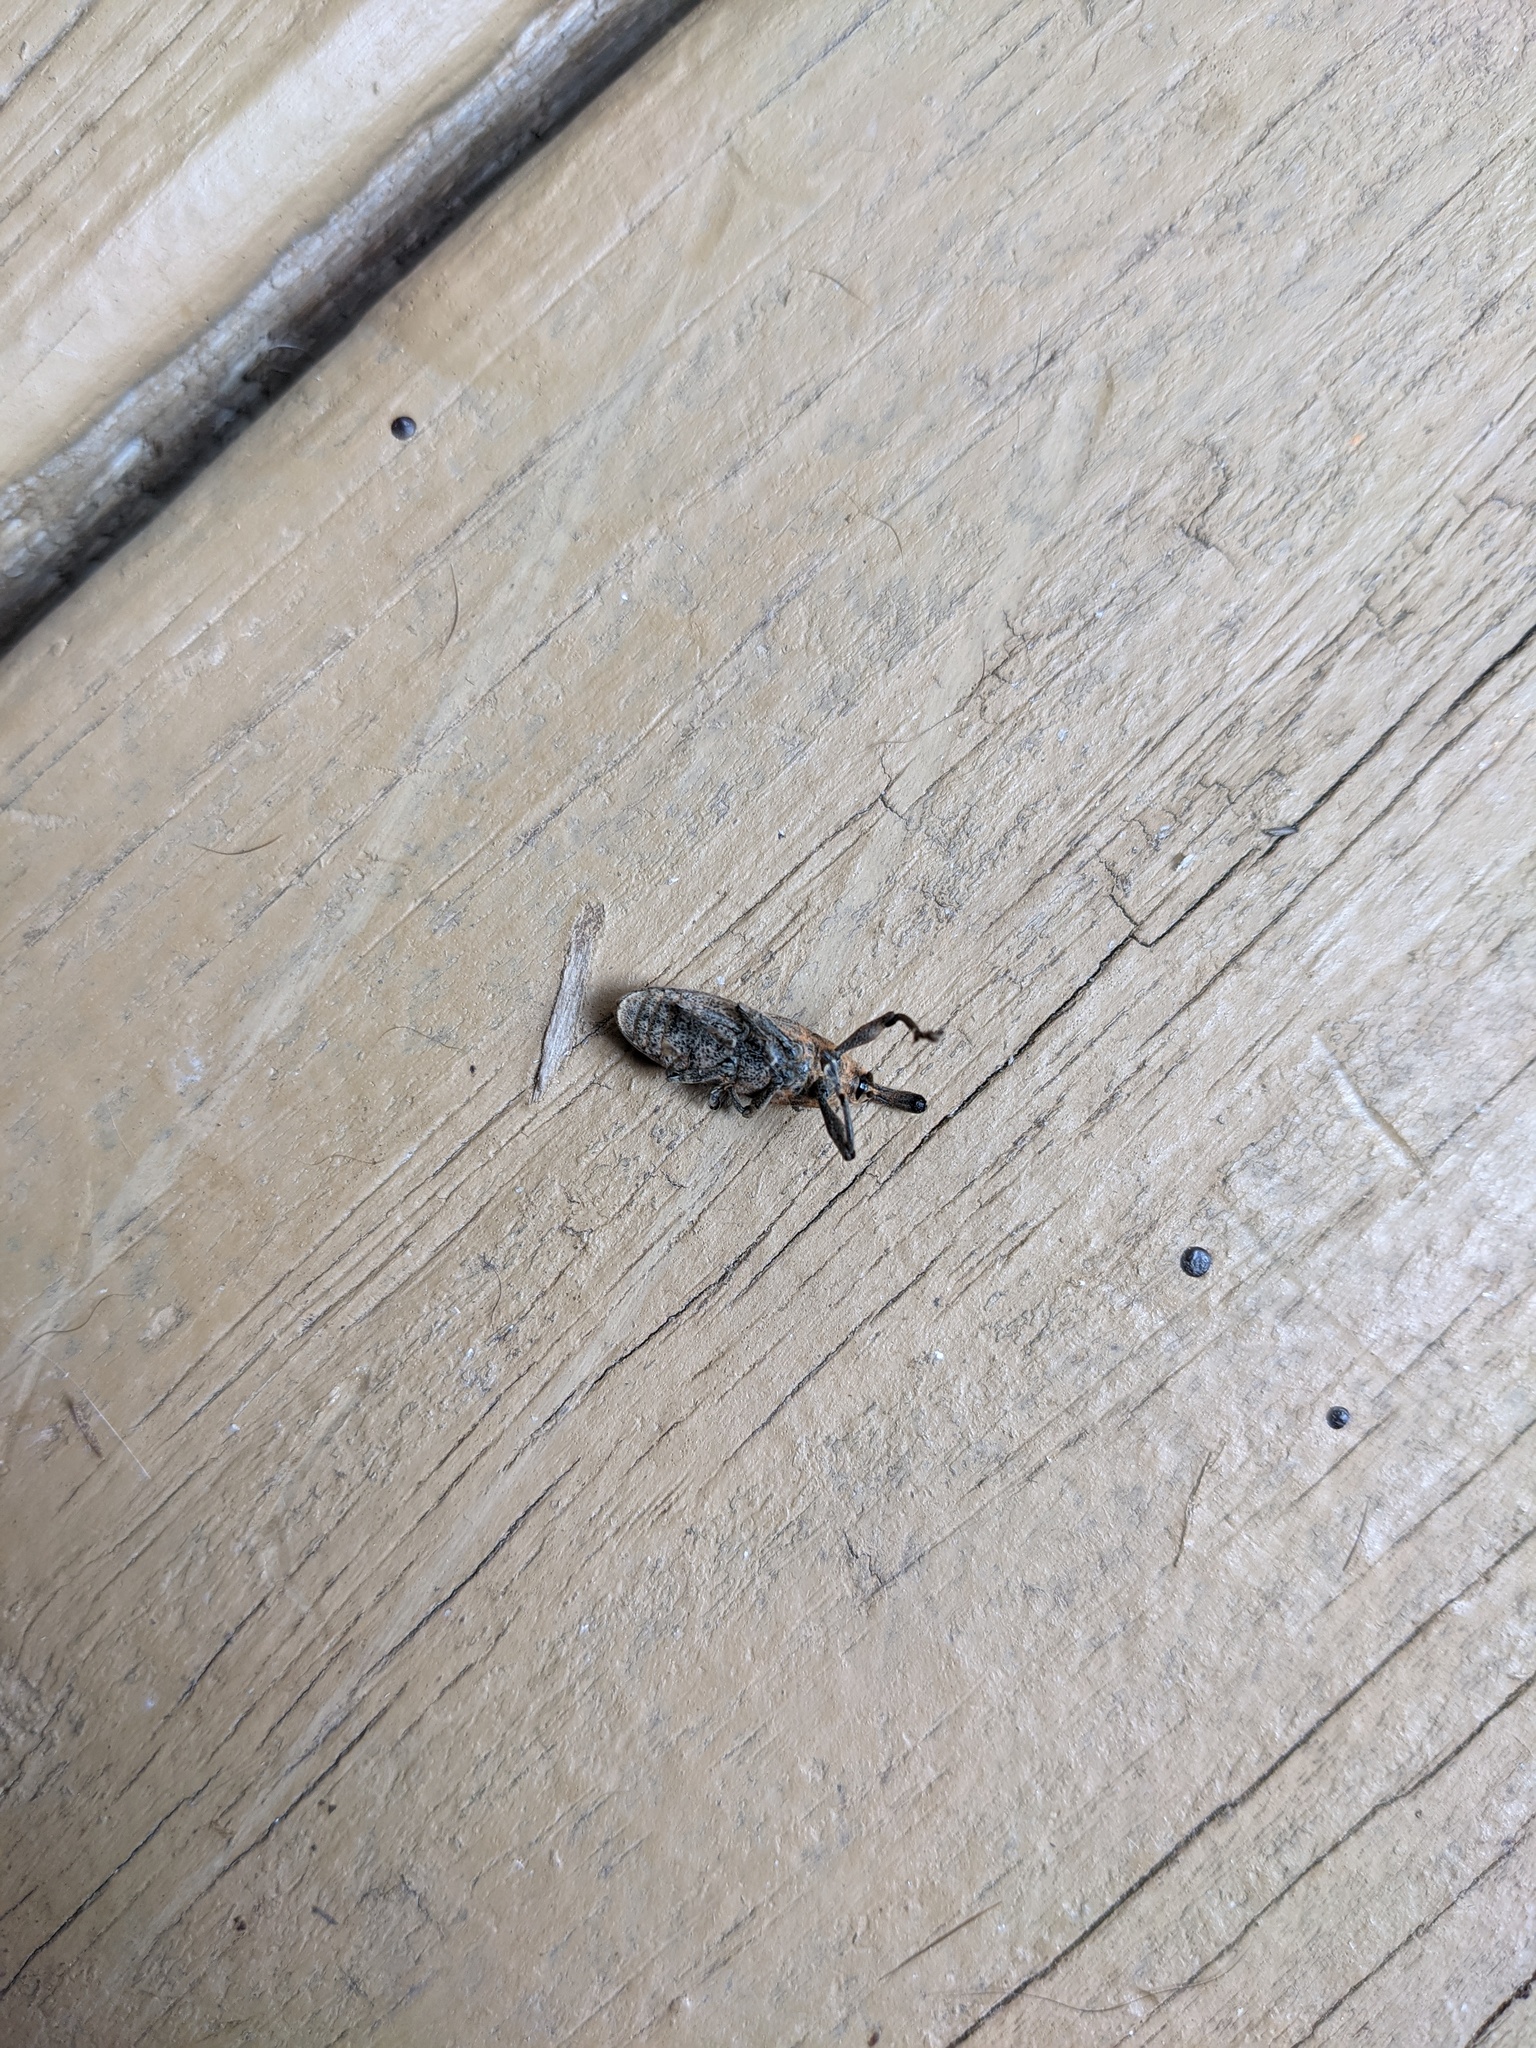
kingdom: Animalia
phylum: Arthropoda
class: Insecta
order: Coleoptera
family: Curculionidae
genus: Lixus
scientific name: Lixus concavus
